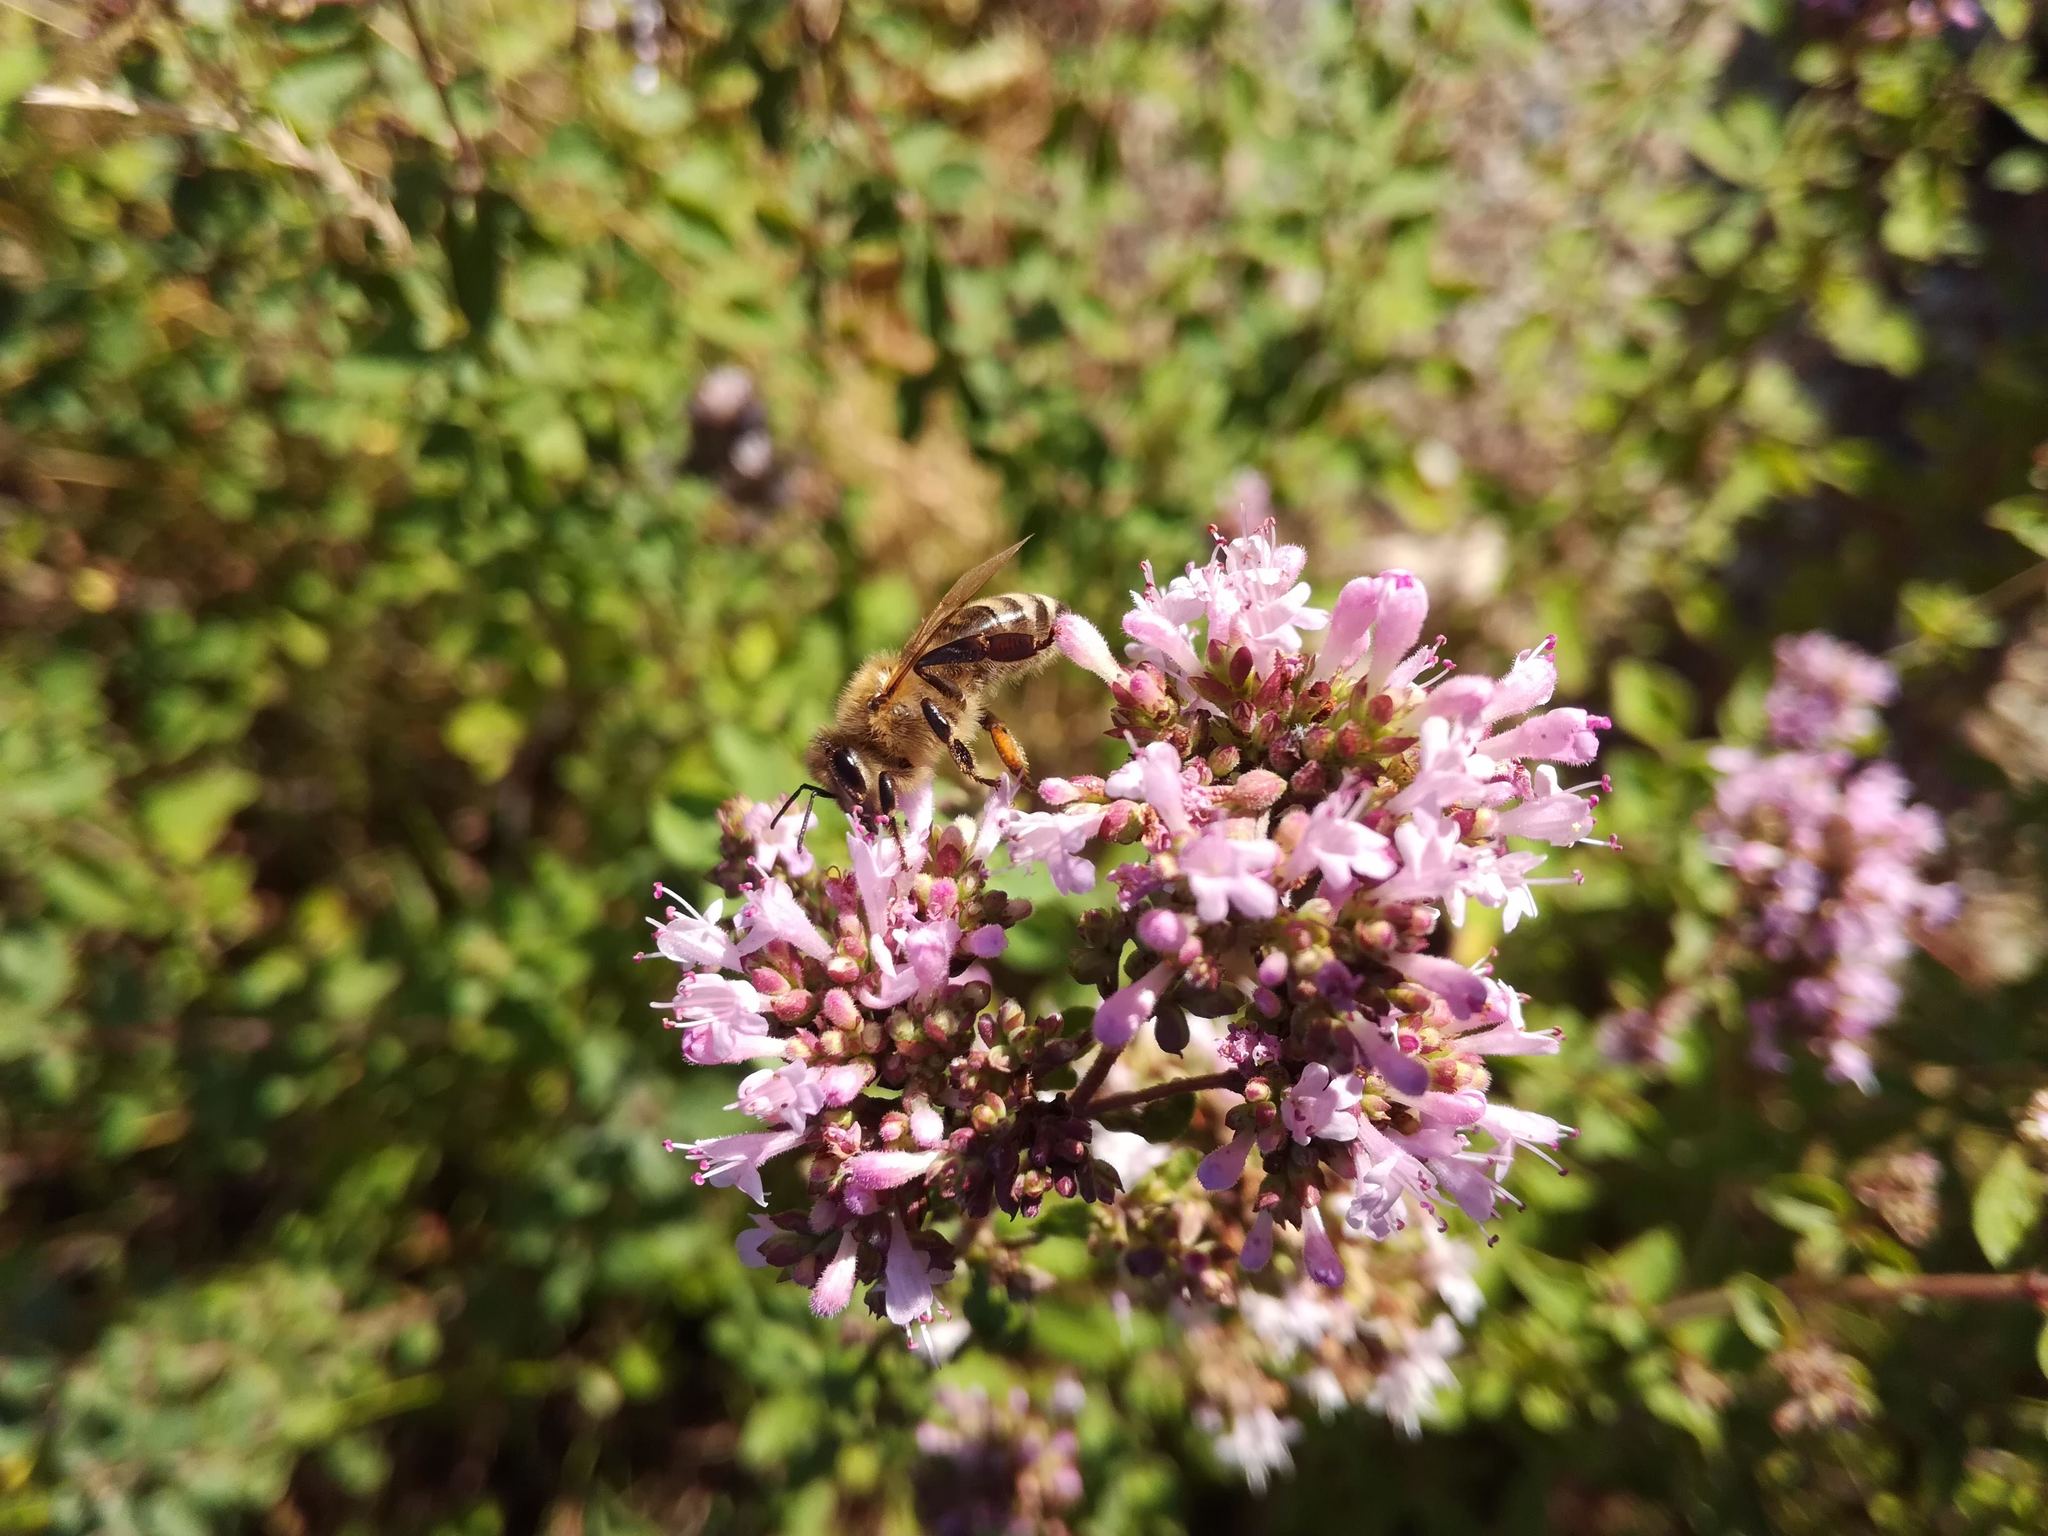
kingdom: Animalia
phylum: Arthropoda
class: Insecta
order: Hymenoptera
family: Apidae
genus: Apis
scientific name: Apis mellifera
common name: Honey bee
